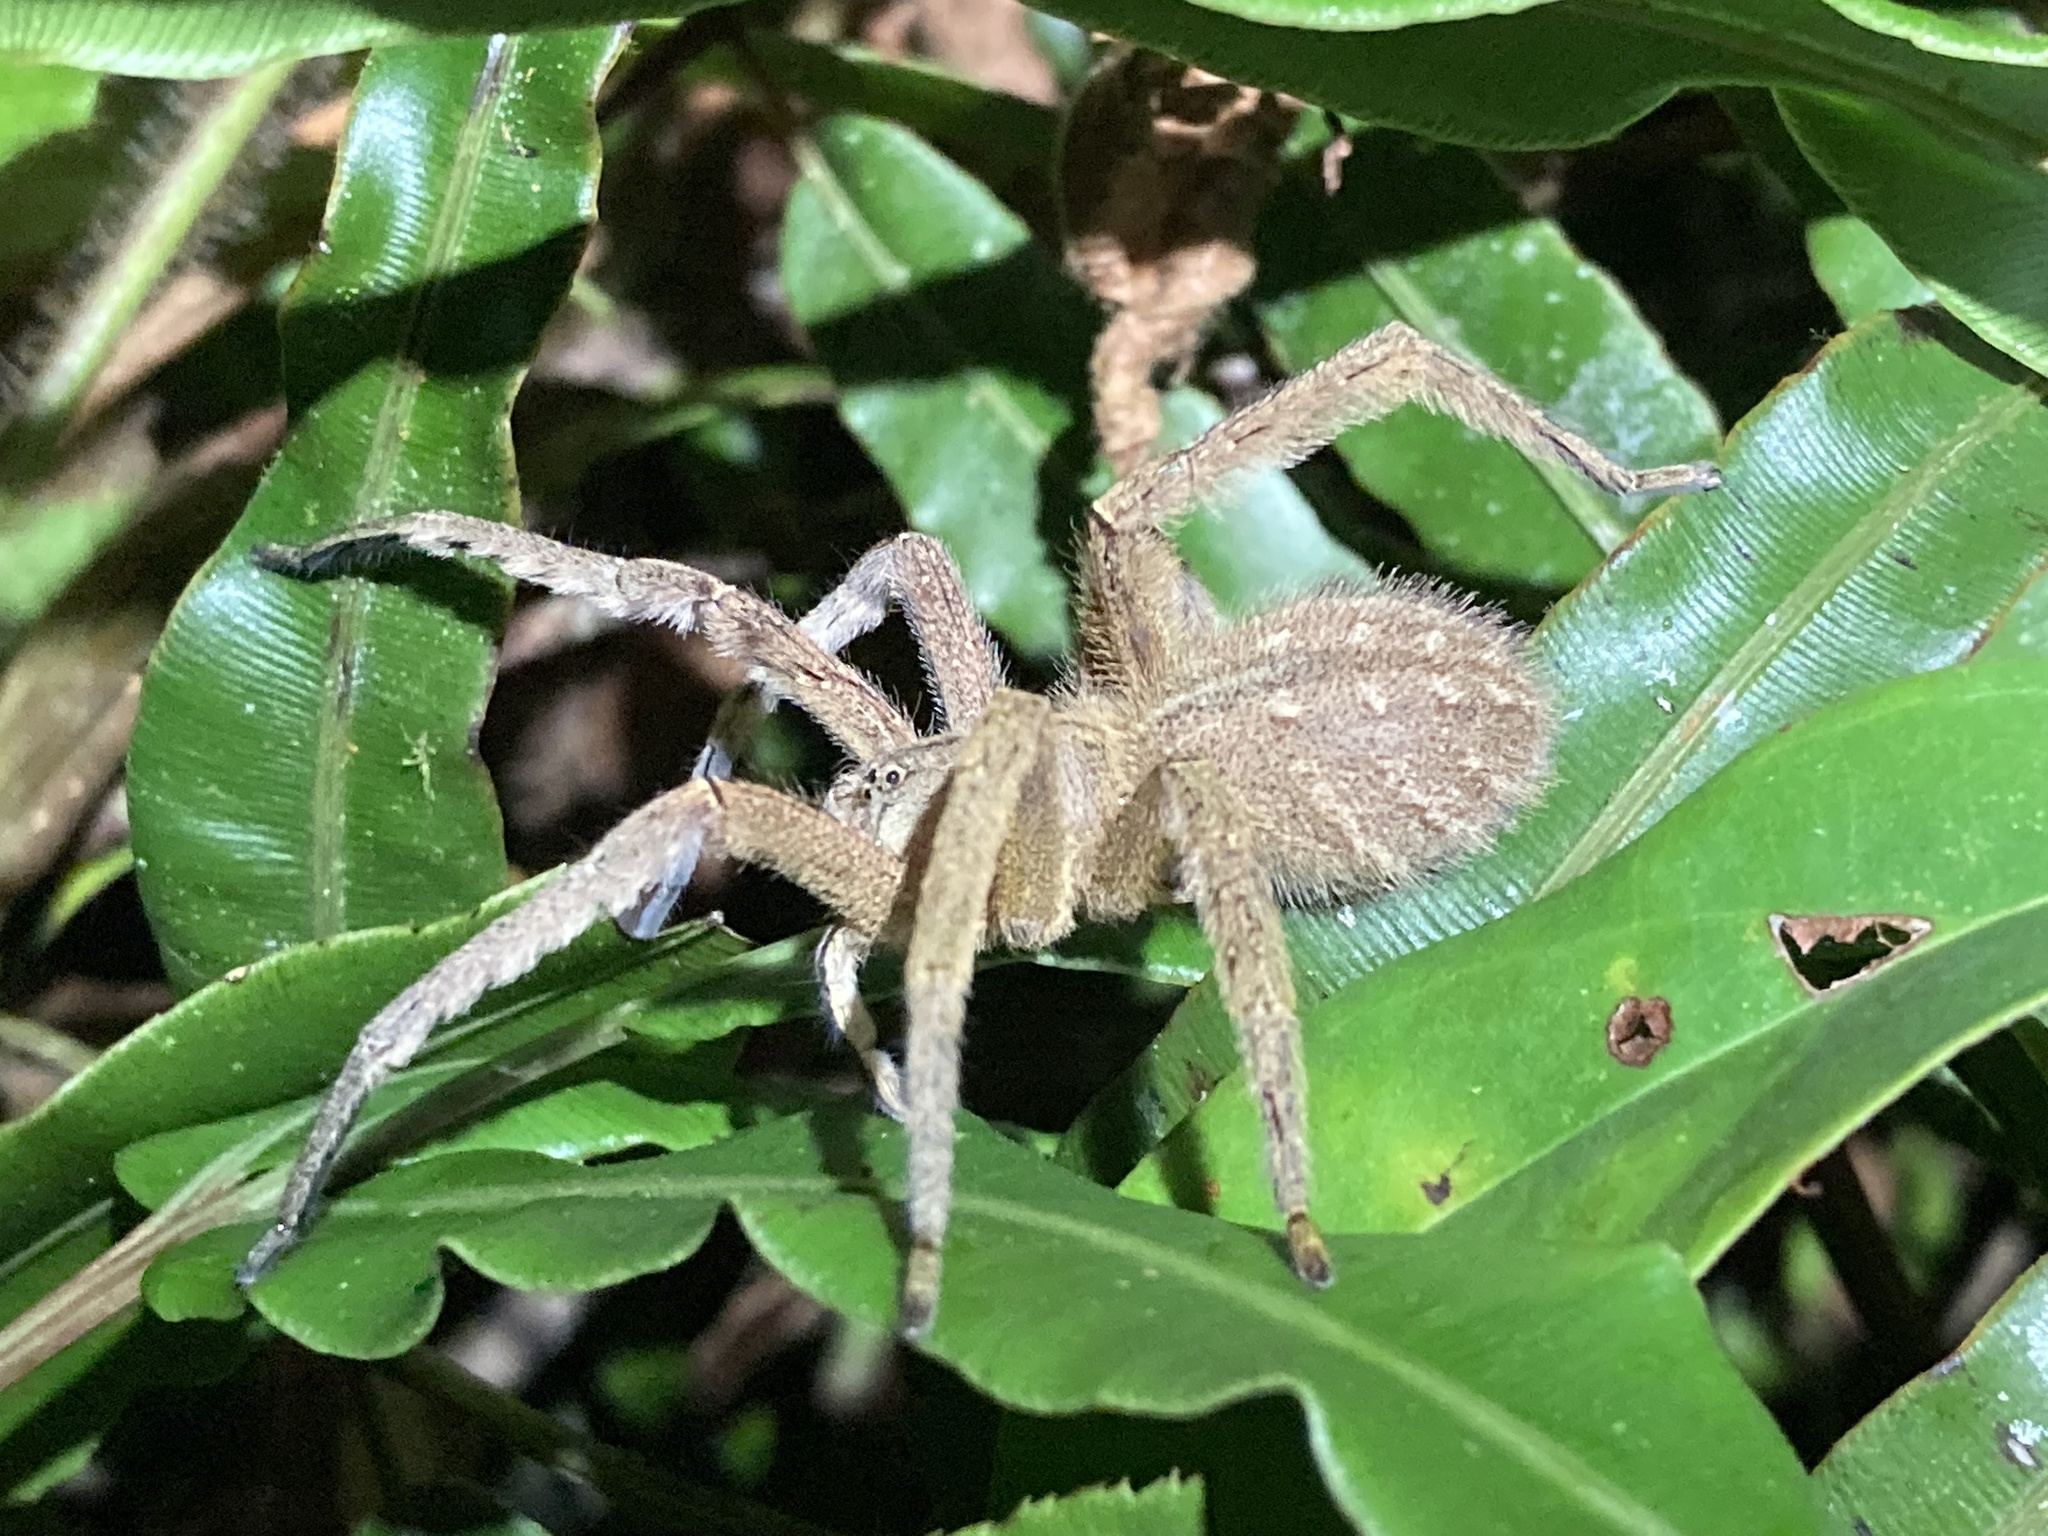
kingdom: Animalia
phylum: Arthropoda
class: Arachnida
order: Araneae
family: Ctenidae
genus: Phoneutria
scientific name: Phoneutria depilata
